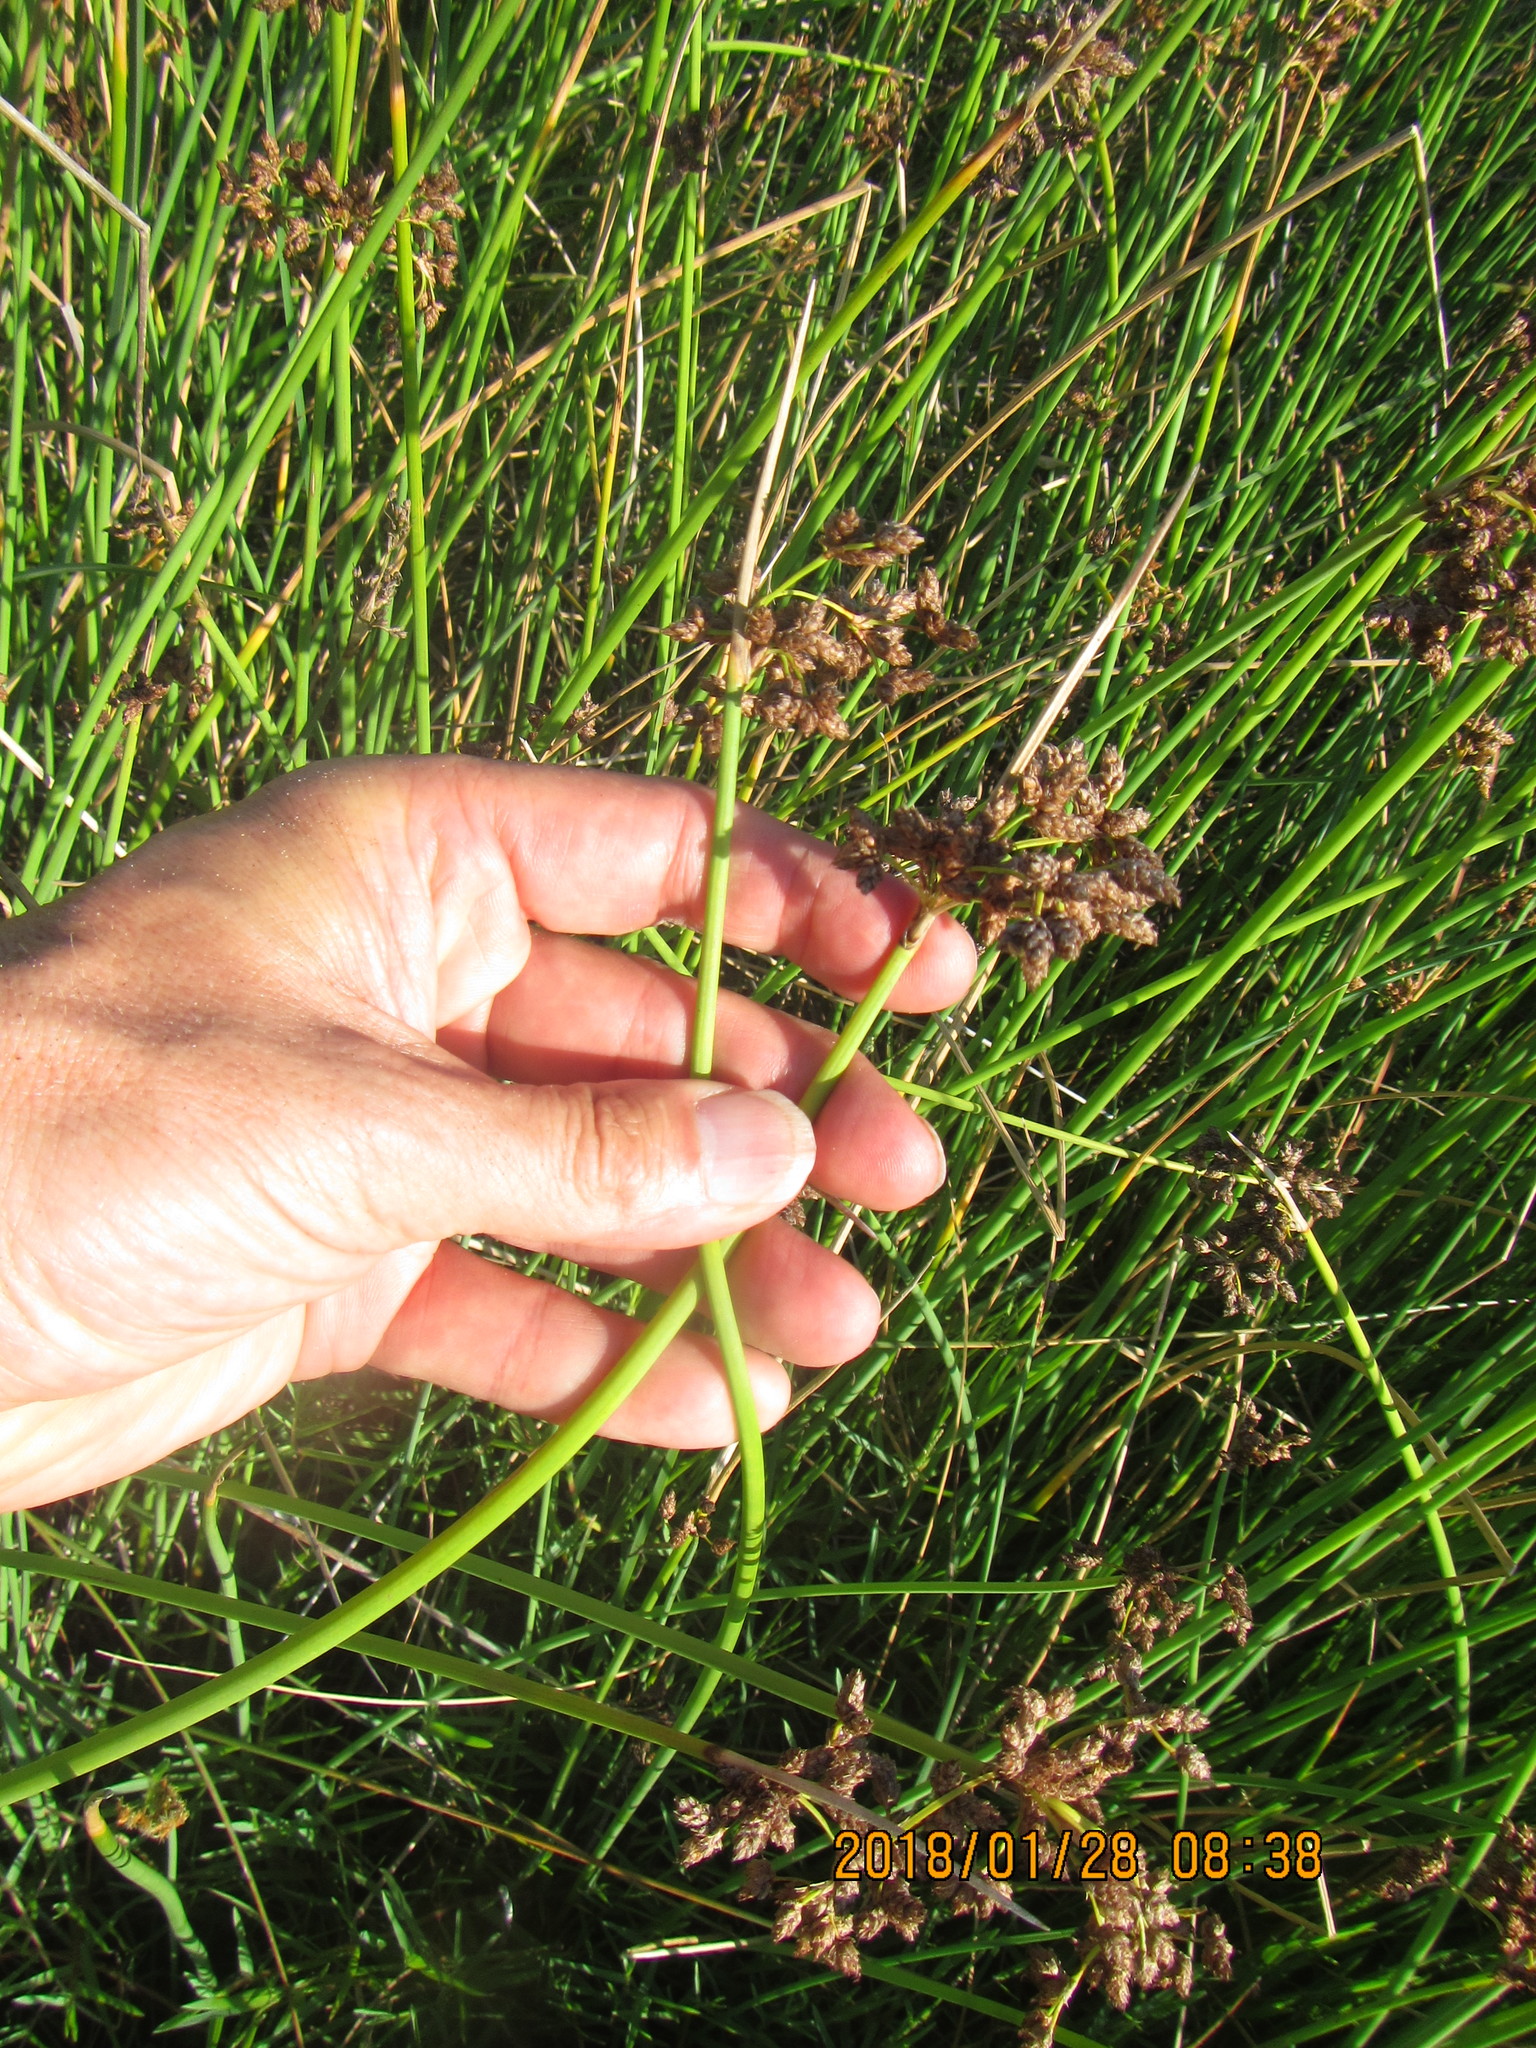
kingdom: Plantae
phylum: Tracheophyta
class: Liliopsida
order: Poales
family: Cyperaceae
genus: Schoenoplectus
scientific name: Schoenoplectus tabernaemontani
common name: Grey club-rush
